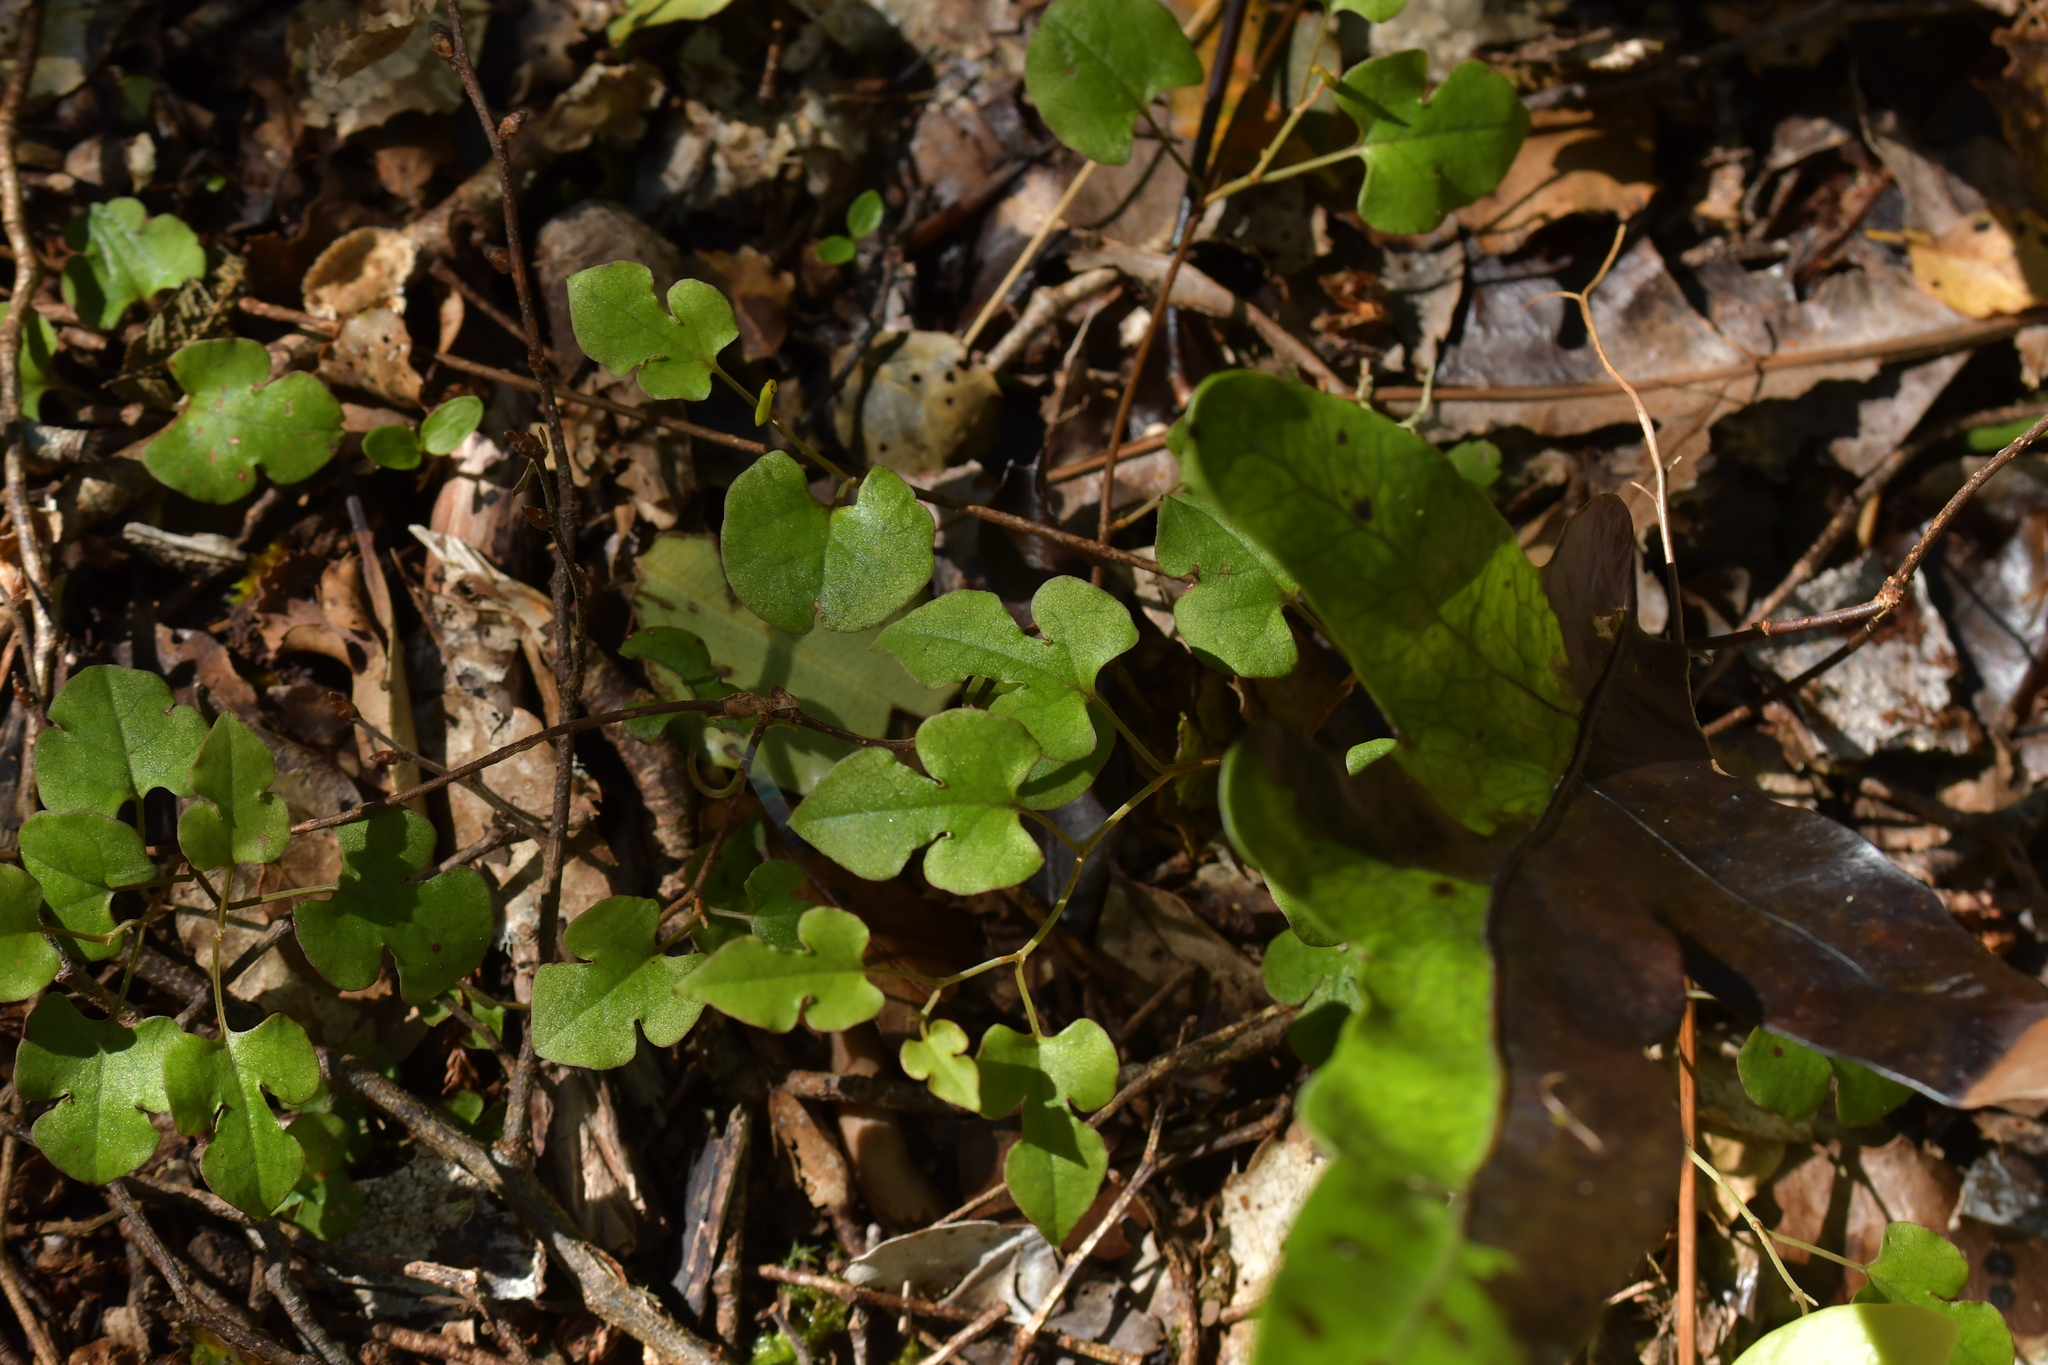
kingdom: Plantae
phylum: Tracheophyta
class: Magnoliopsida
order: Caryophyllales
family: Polygonaceae
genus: Muehlenbeckia
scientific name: Muehlenbeckia australis
